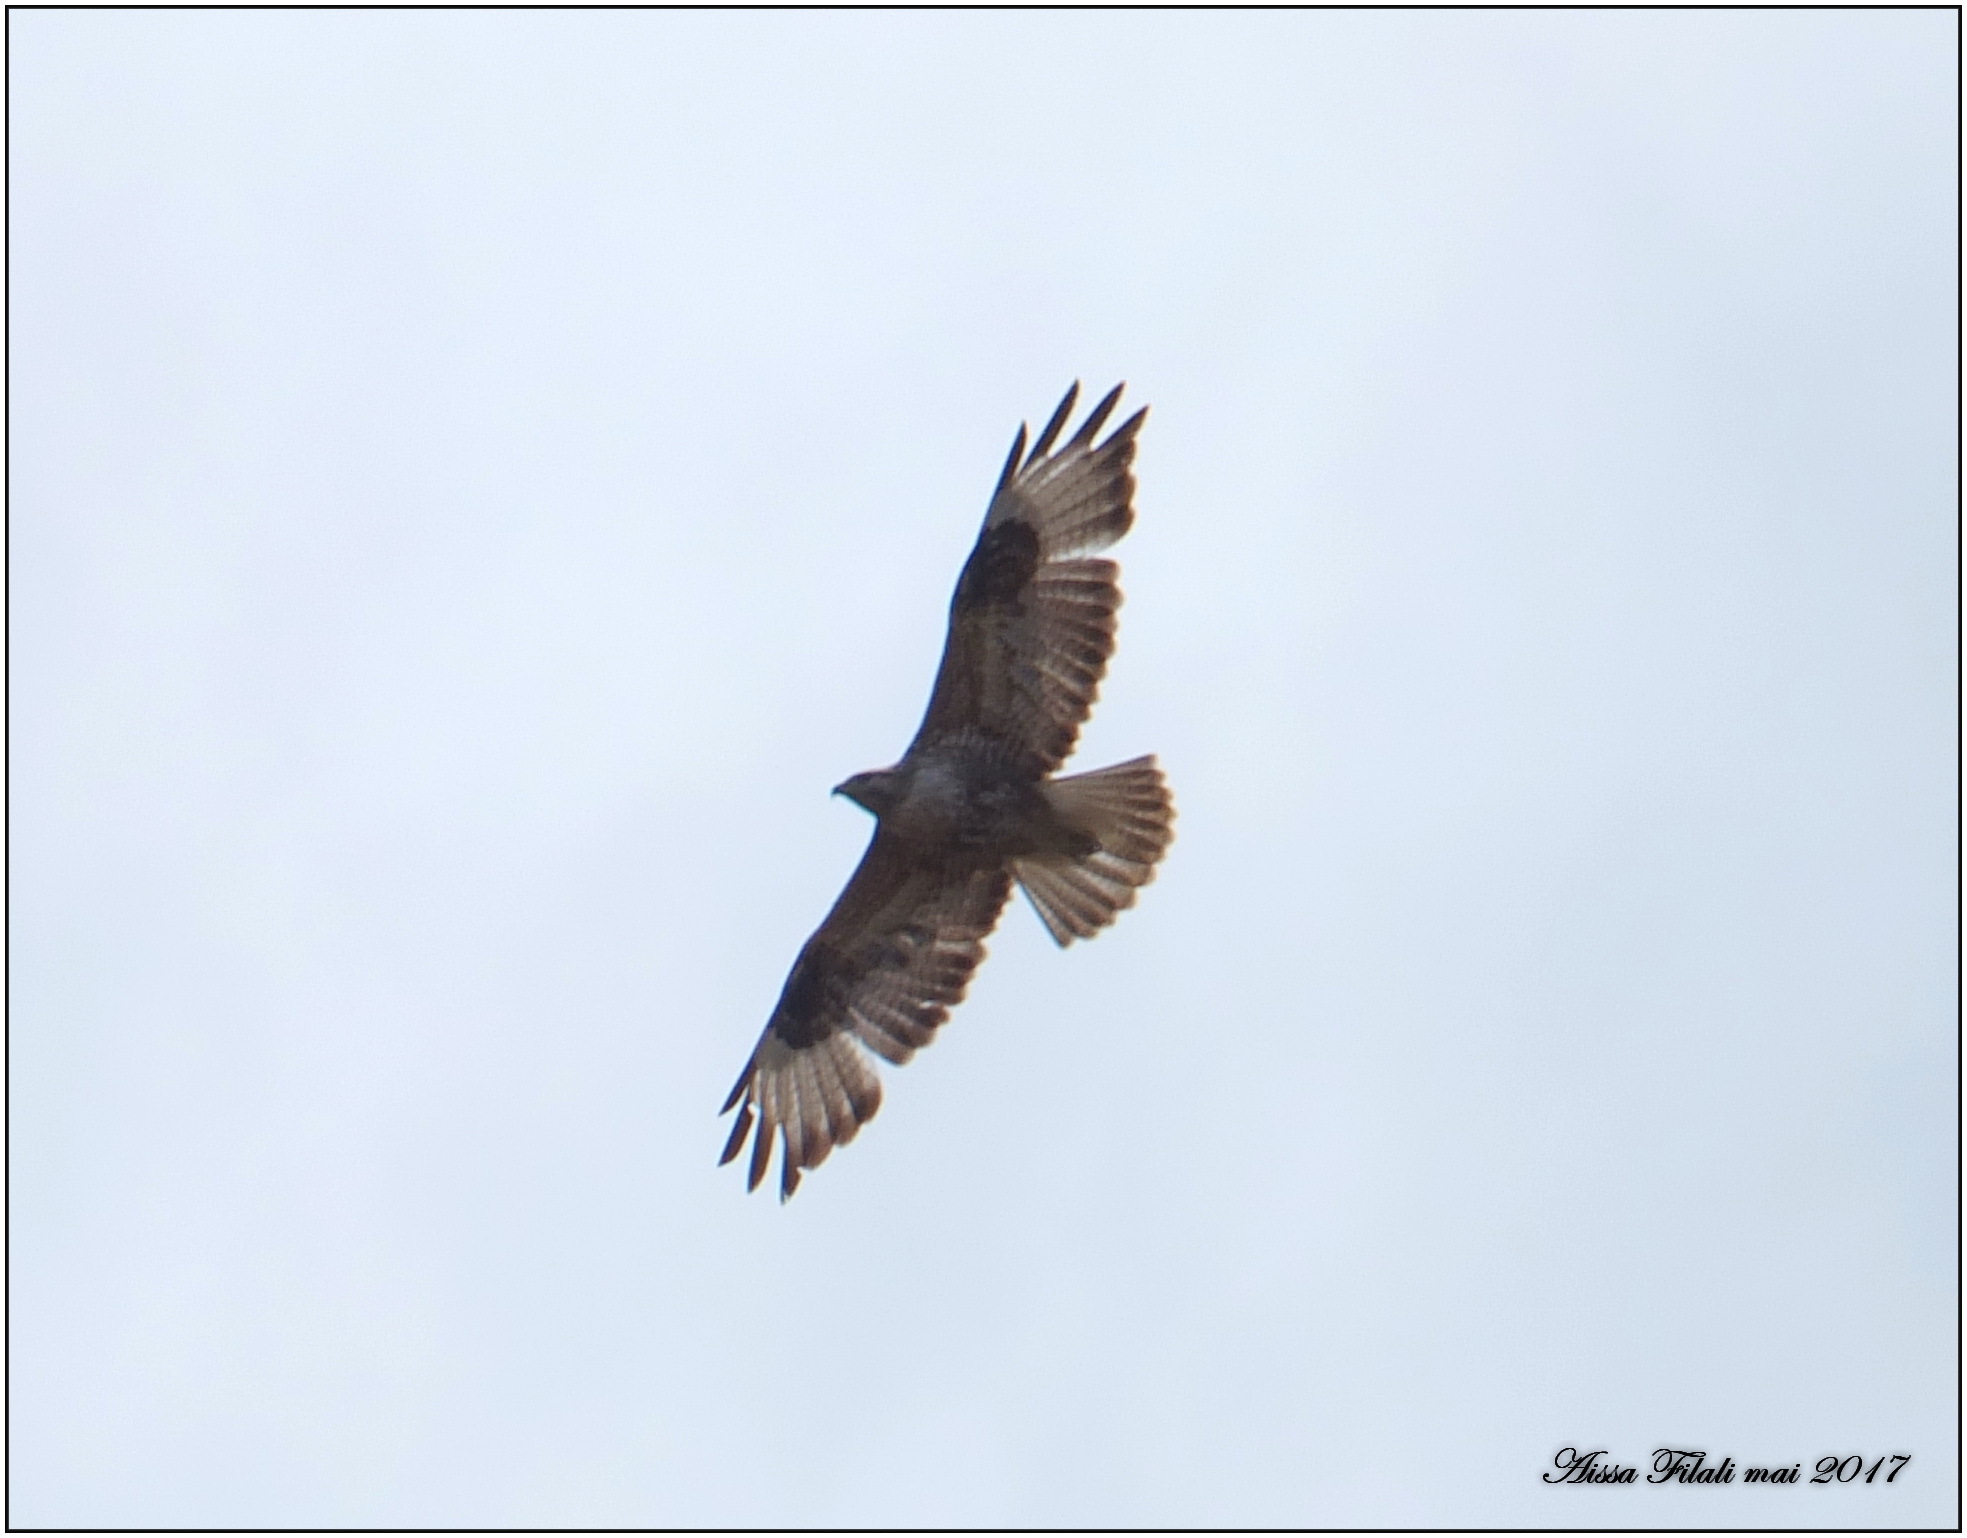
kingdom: Animalia
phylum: Chordata
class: Aves
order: Accipitriformes
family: Accipitridae
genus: Buteo
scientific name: Buteo buteo
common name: Common buzzard
